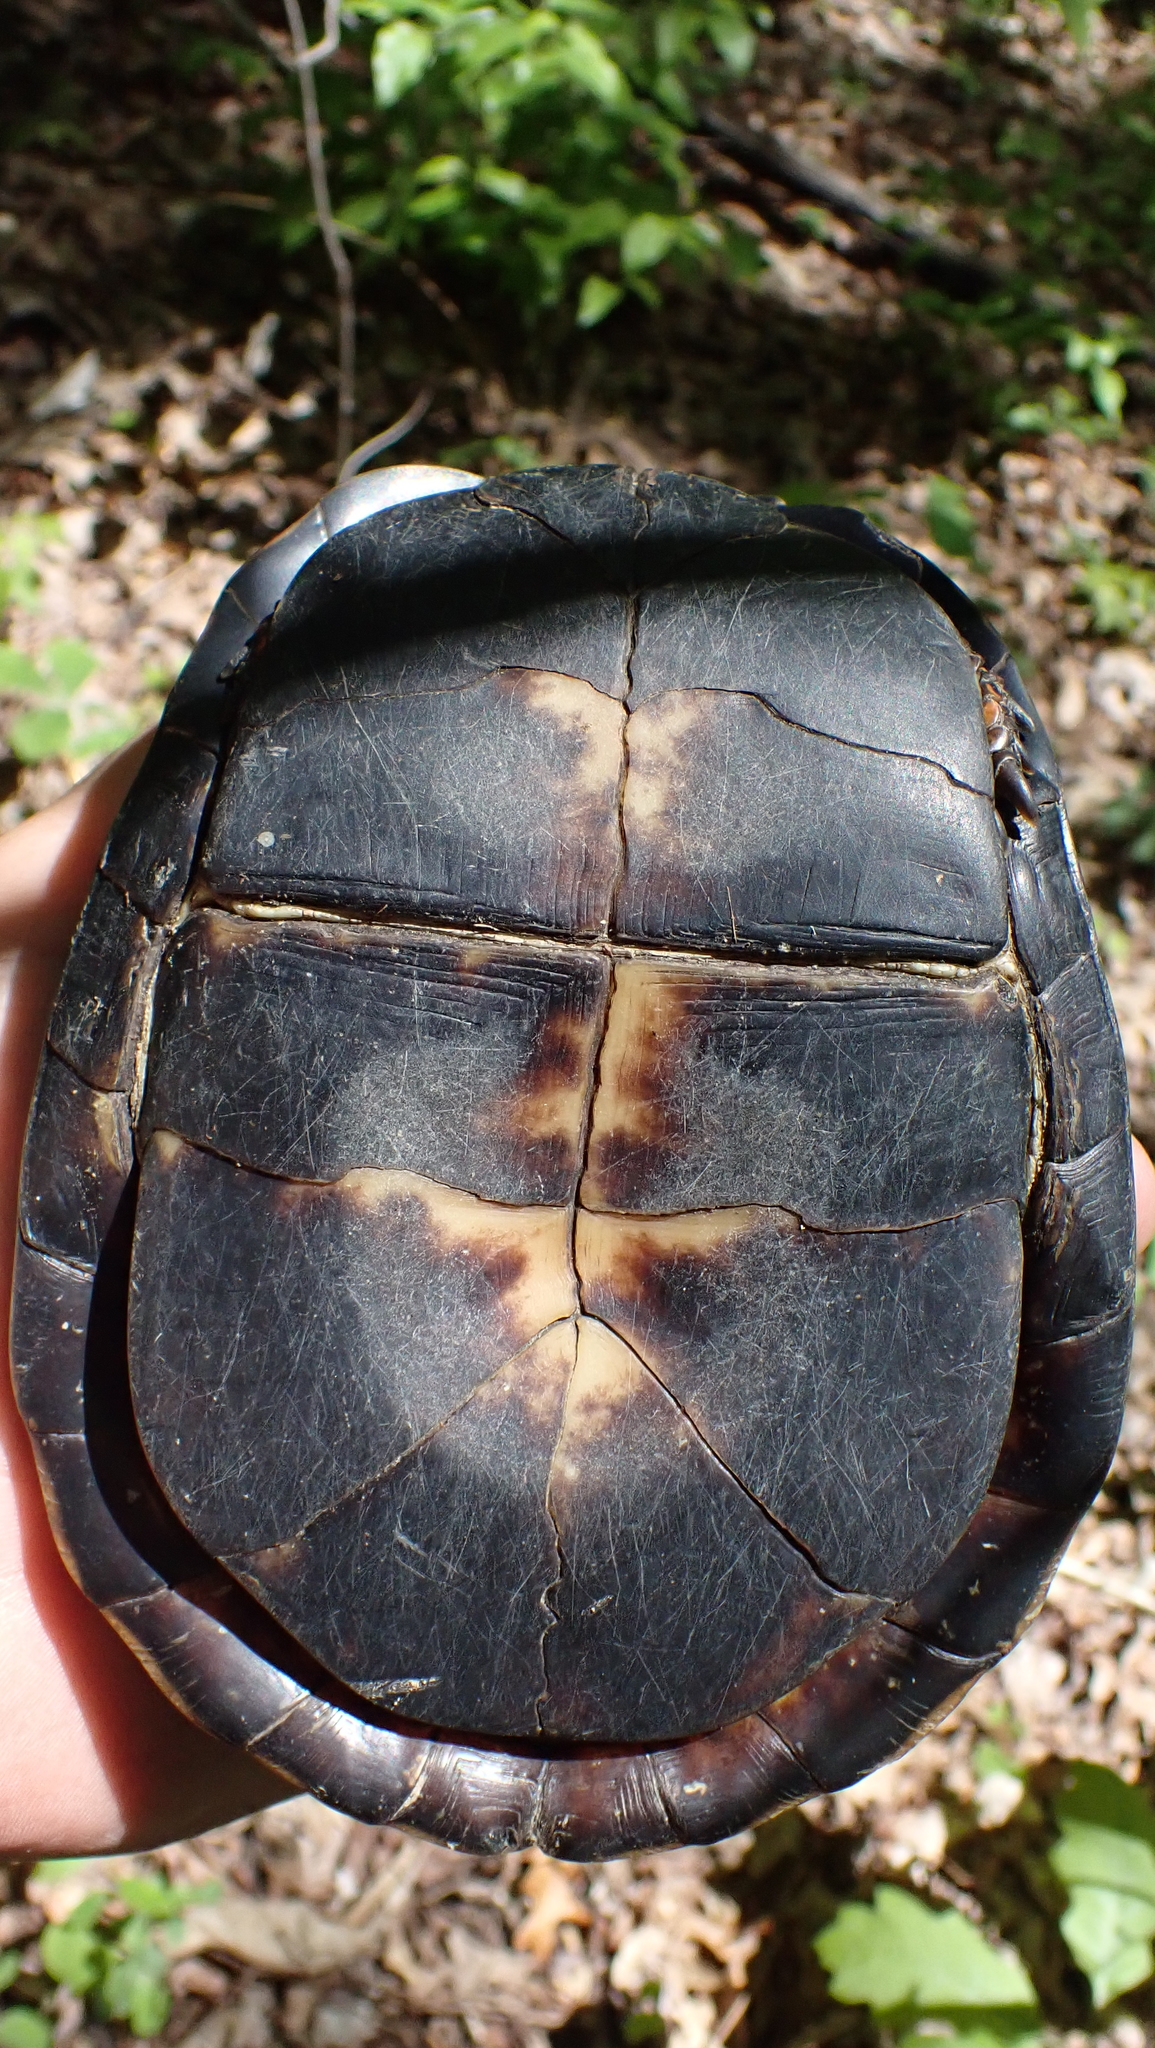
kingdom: Animalia
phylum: Chordata
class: Testudines
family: Emydidae
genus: Terrapene
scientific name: Terrapene carolina
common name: Common box turtle
